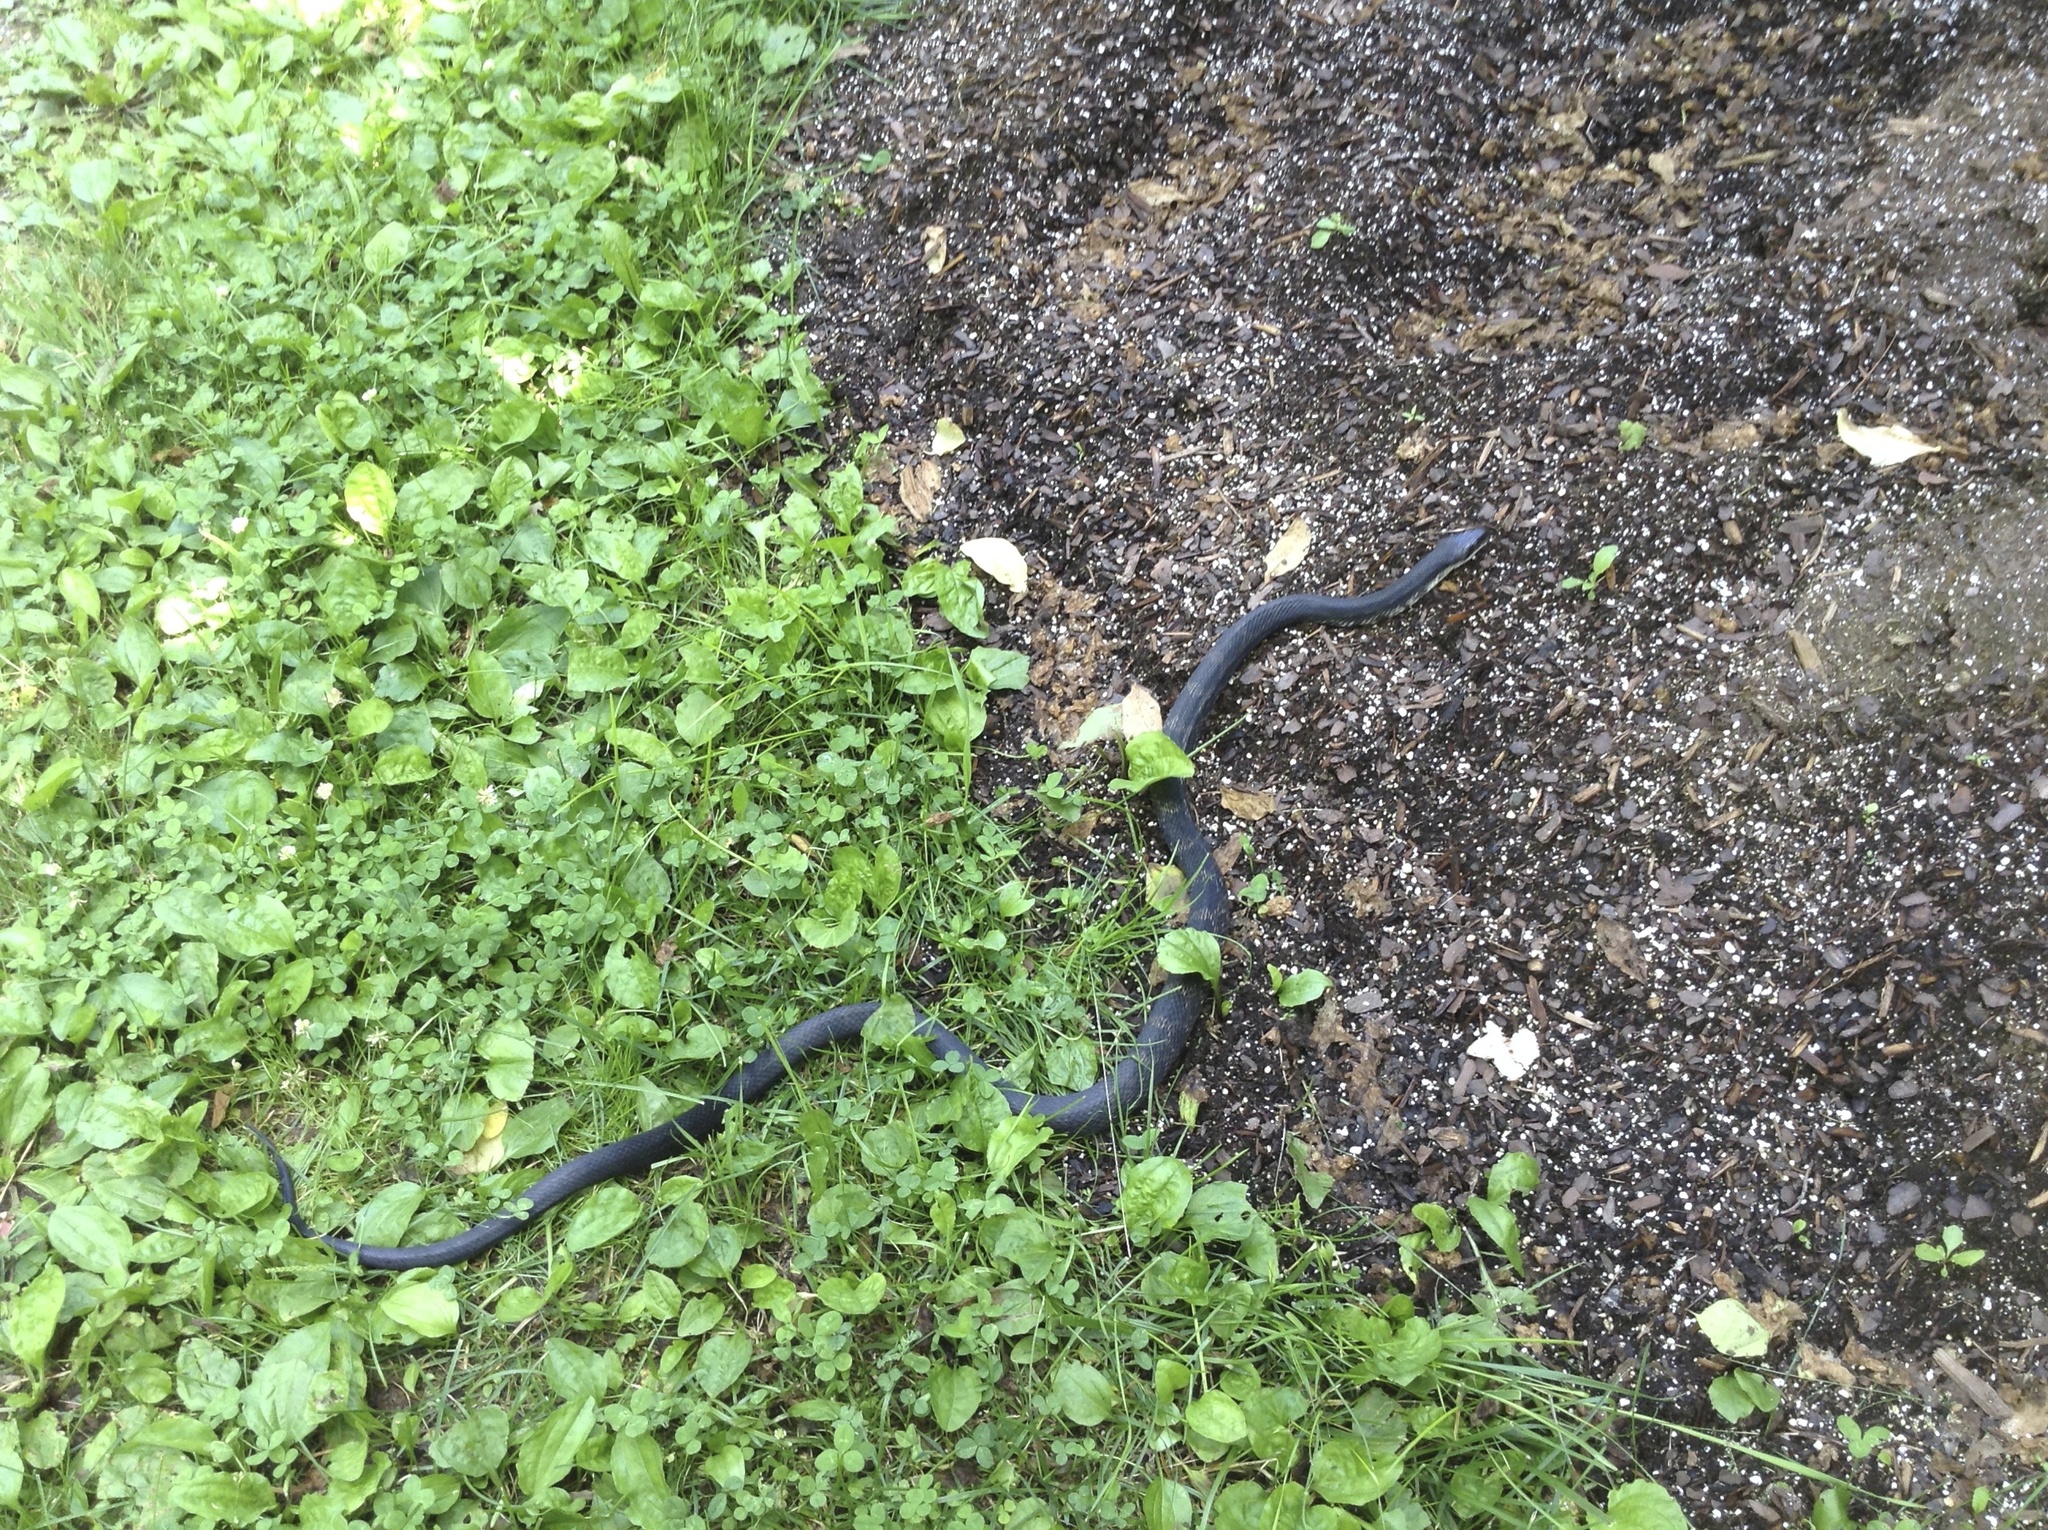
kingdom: Animalia
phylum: Chordata
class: Squamata
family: Colubridae
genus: Pantherophis
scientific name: Pantherophis spiloides
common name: Gray rat snake
